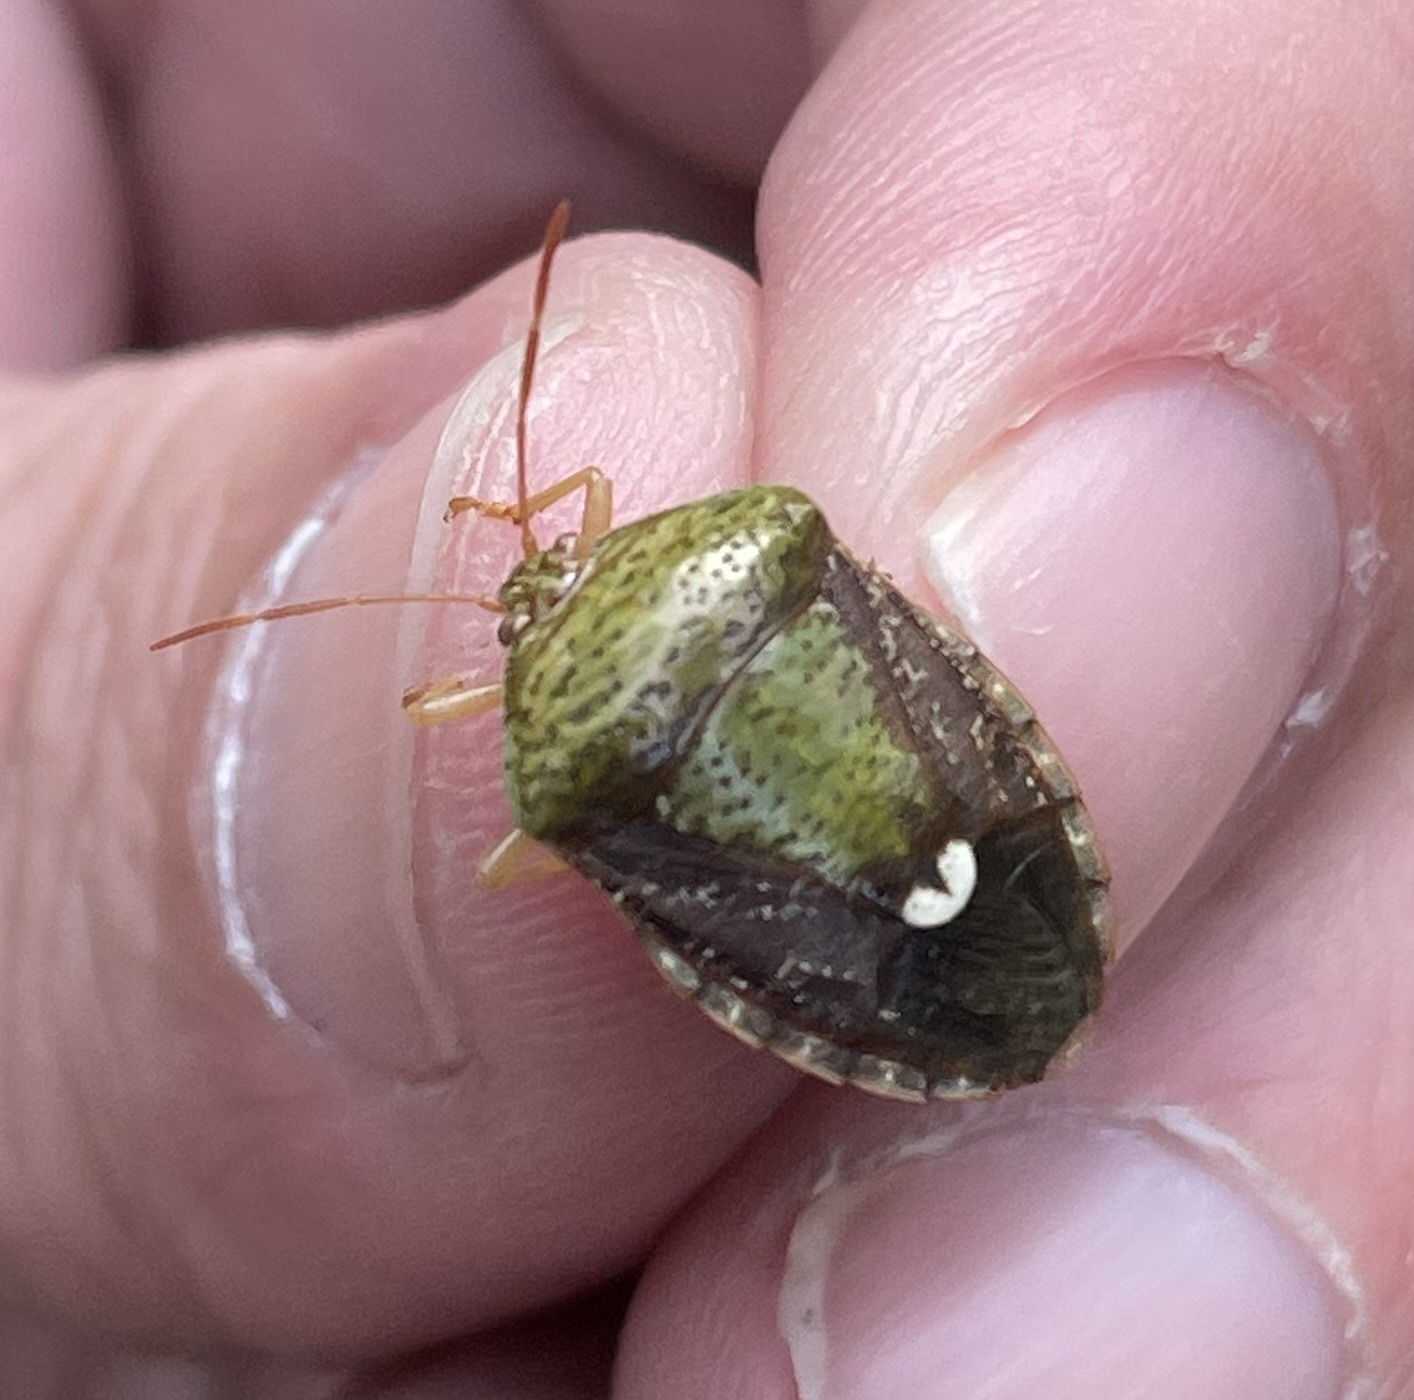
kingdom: Animalia
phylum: Arthropoda
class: Insecta
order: Hemiptera
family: Pentatomidae
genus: Edessa
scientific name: Edessa bifida
